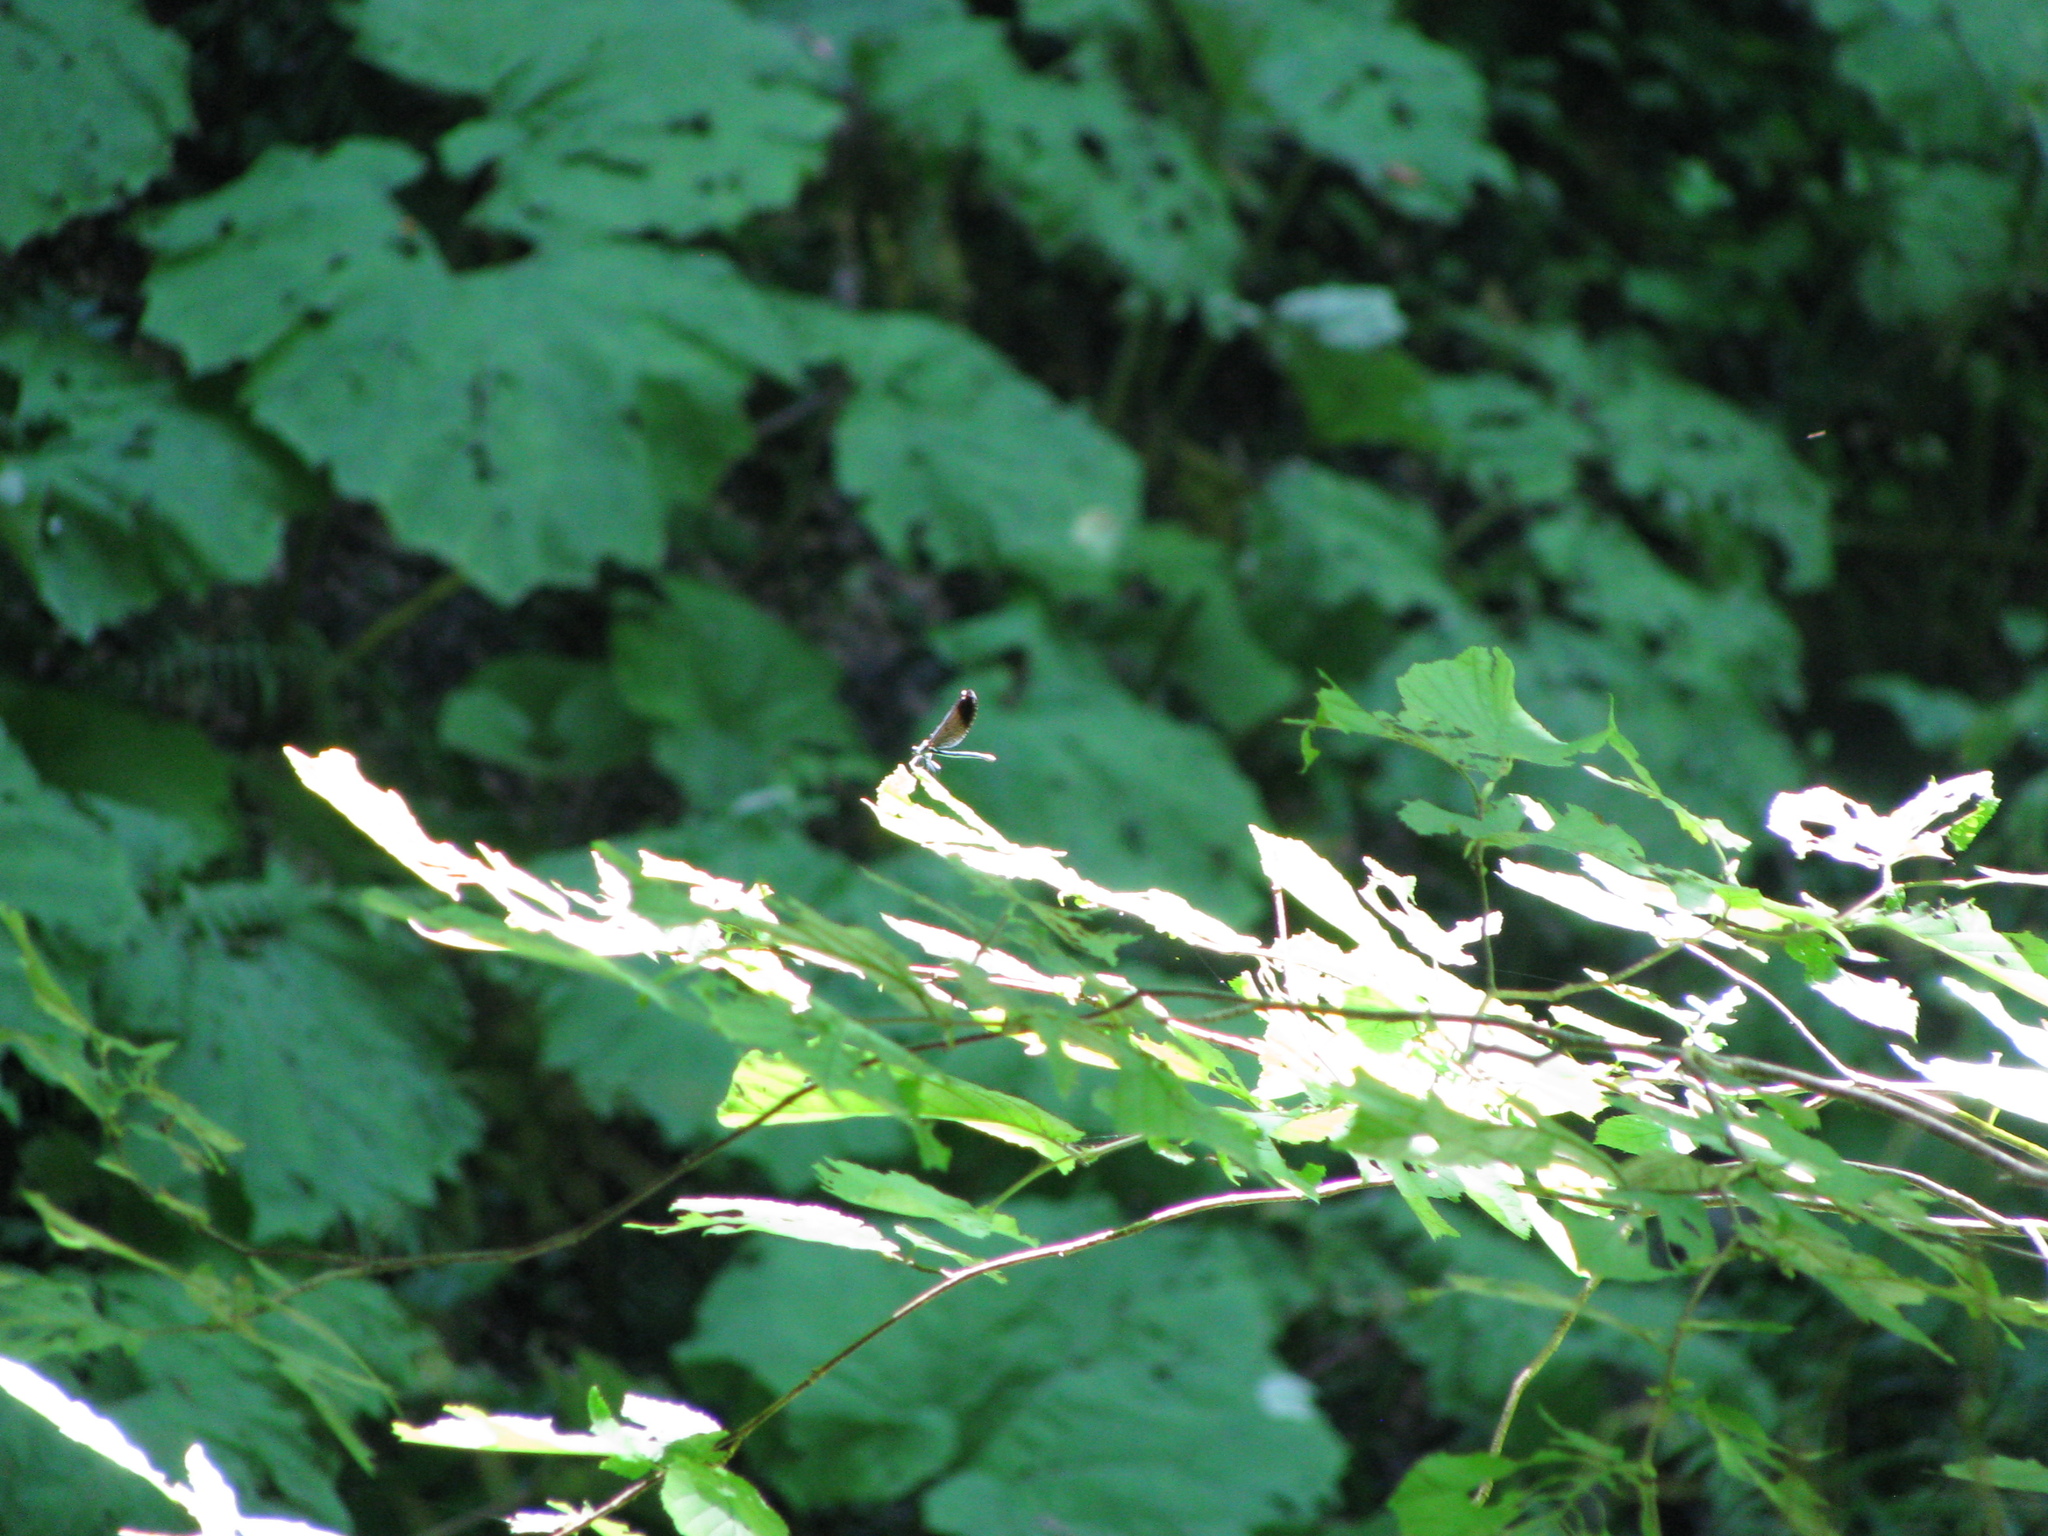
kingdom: Animalia
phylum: Arthropoda
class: Insecta
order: Odonata
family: Calopterygidae
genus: Calopteryx
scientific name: Calopteryx virgo
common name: Beautiful demoiselle
